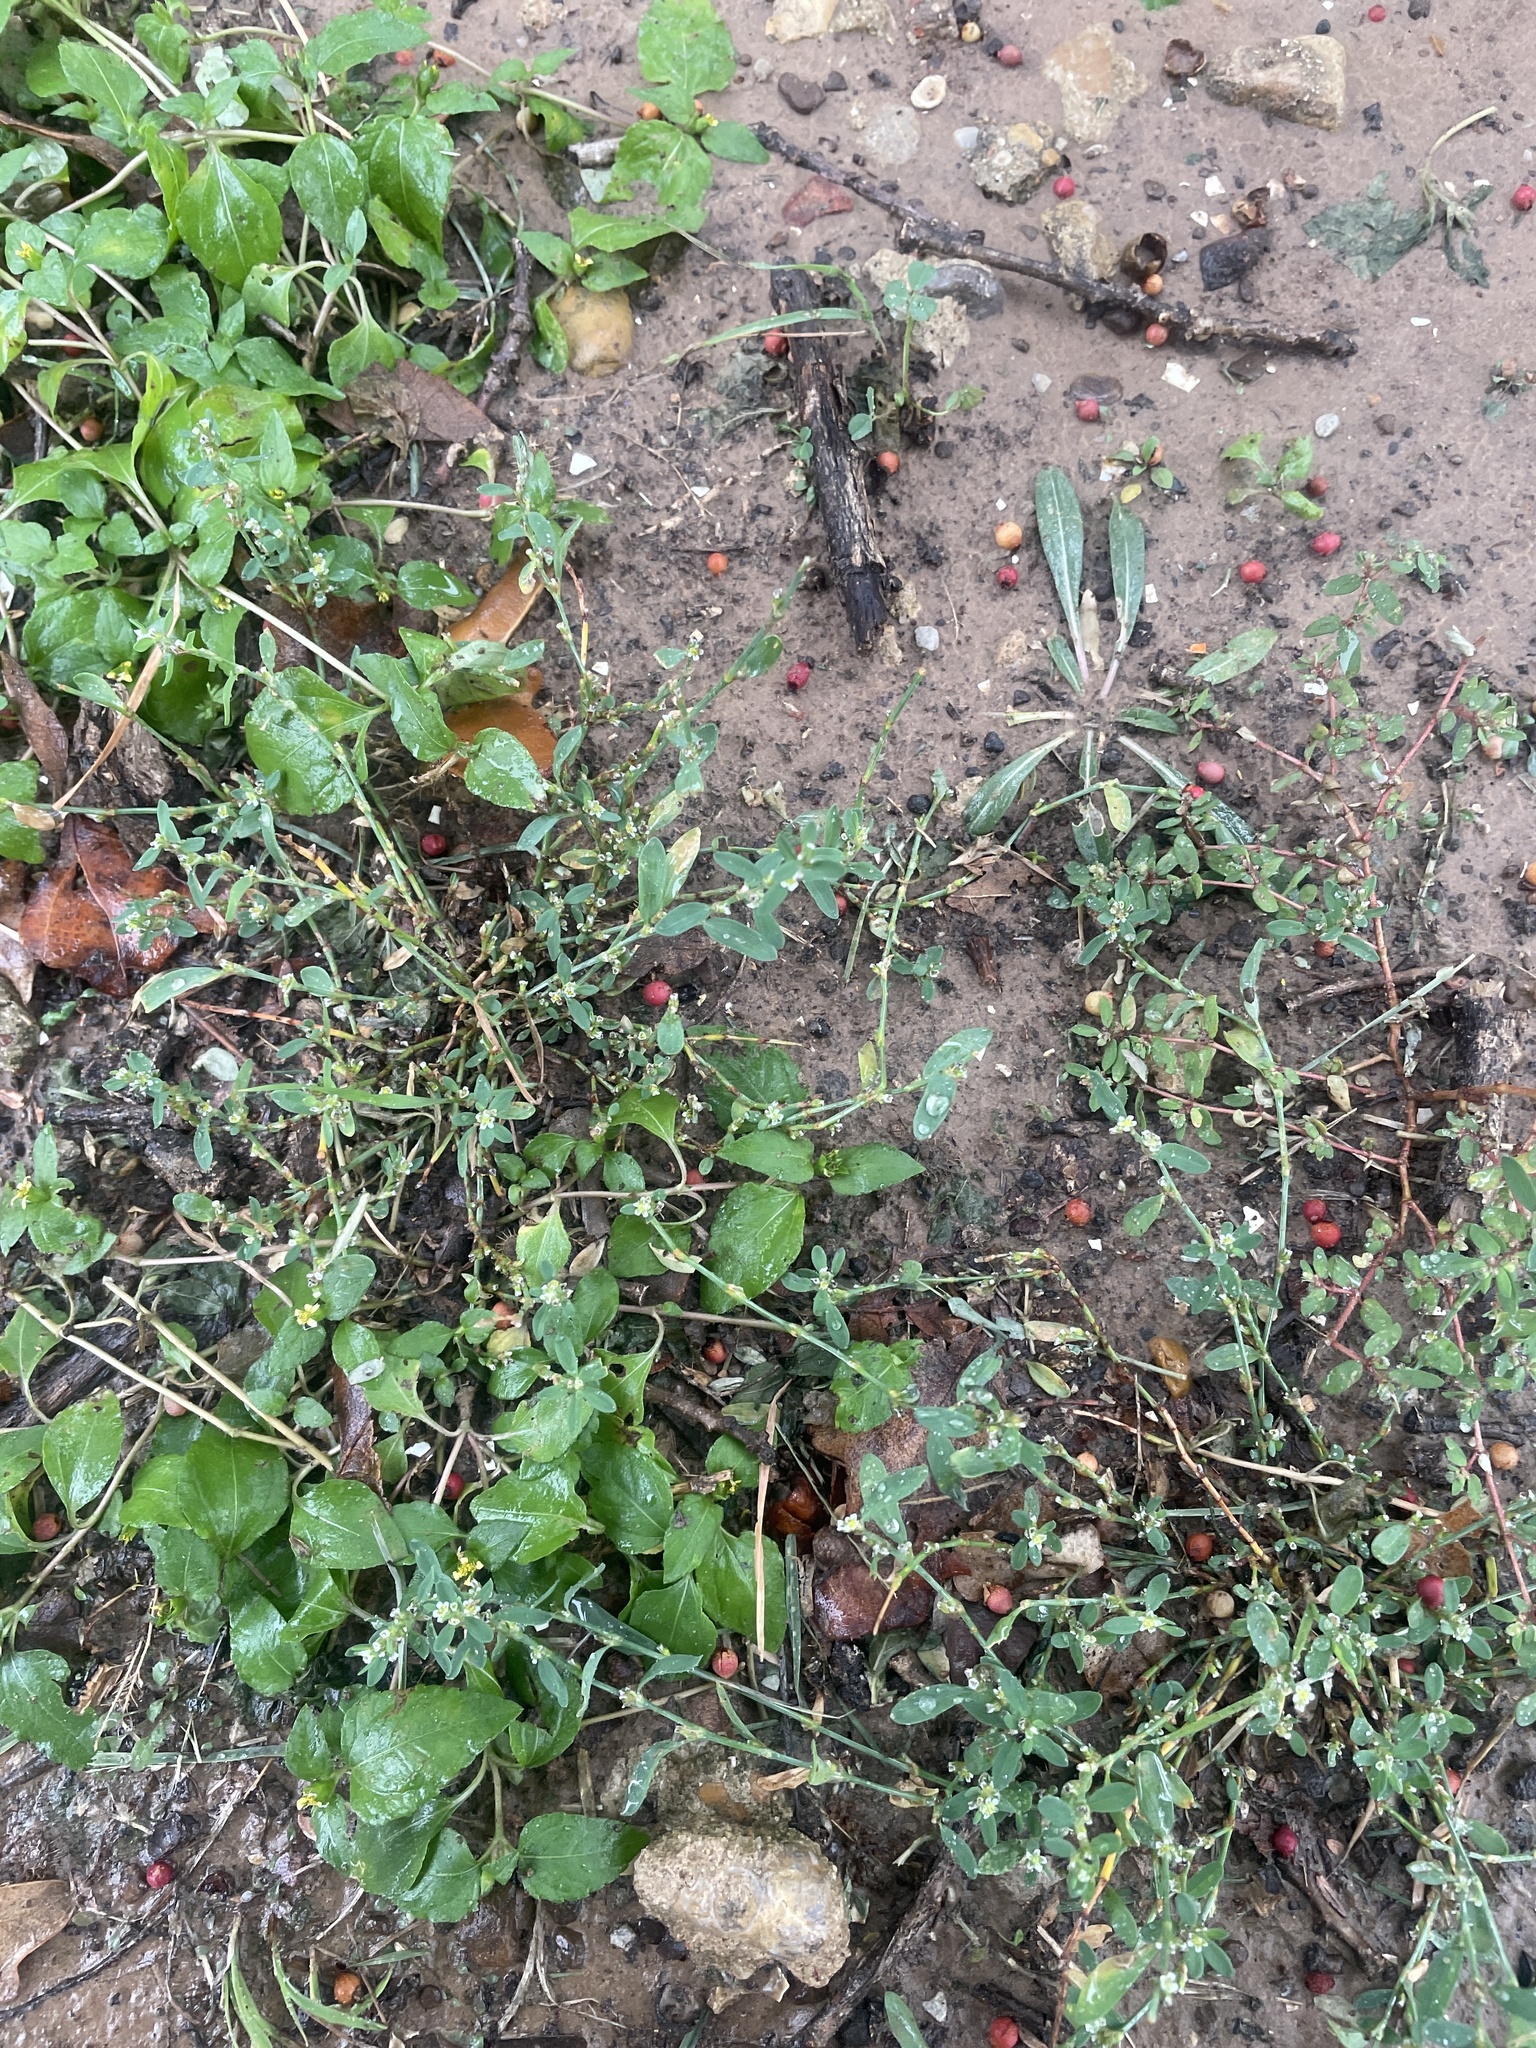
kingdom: Plantae
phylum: Tracheophyta
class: Magnoliopsida
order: Caryophyllales
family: Polygonaceae
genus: Polygonum
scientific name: Polygonum aviculare
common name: Prostrate knotweed
